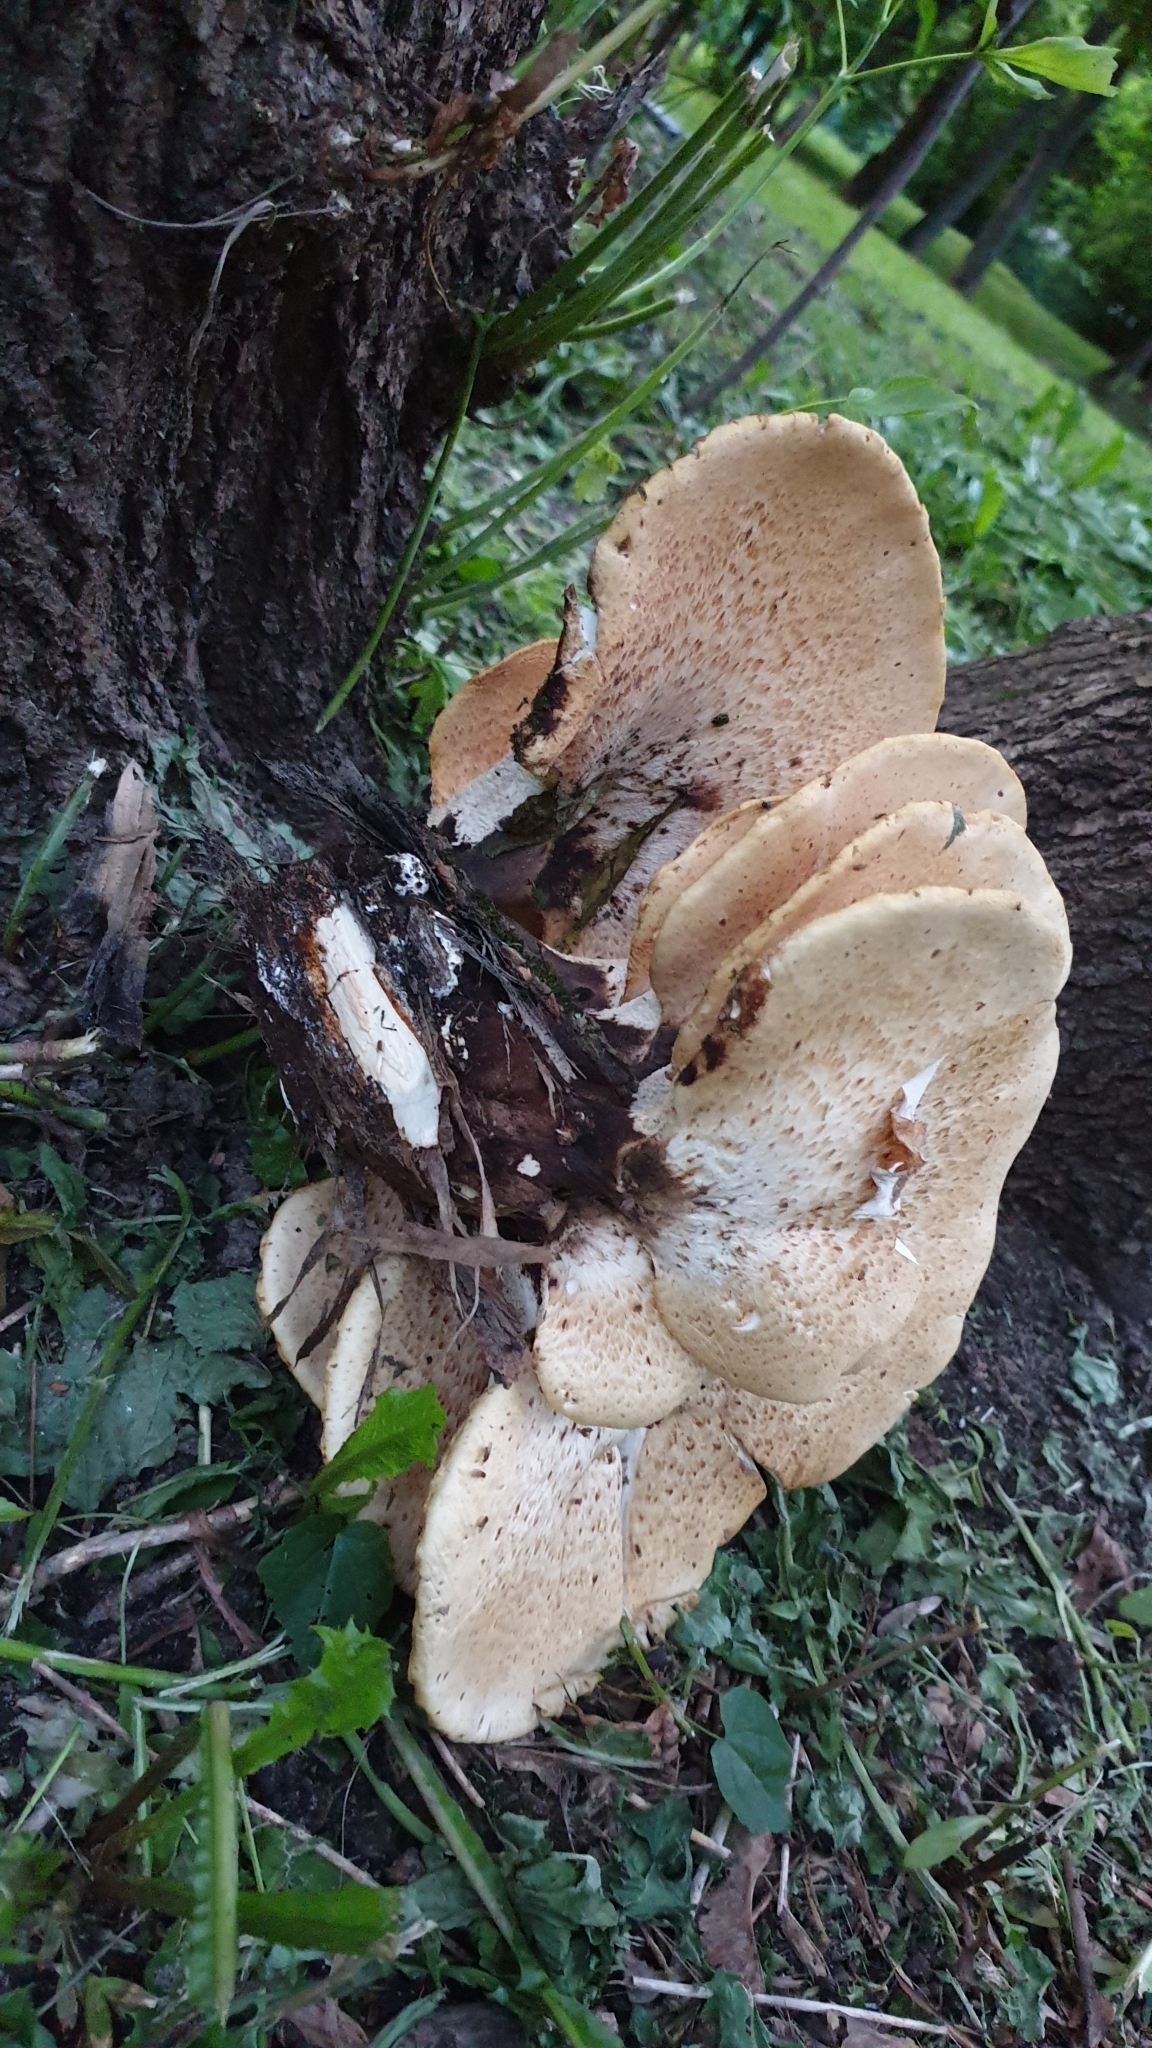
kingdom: Fungi
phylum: Basidiomycota
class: Agaricomycetes
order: Polyporales
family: Polyporaceae
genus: Cerioporus
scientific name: Cerioporus squamosus
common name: Dryad's saddle
